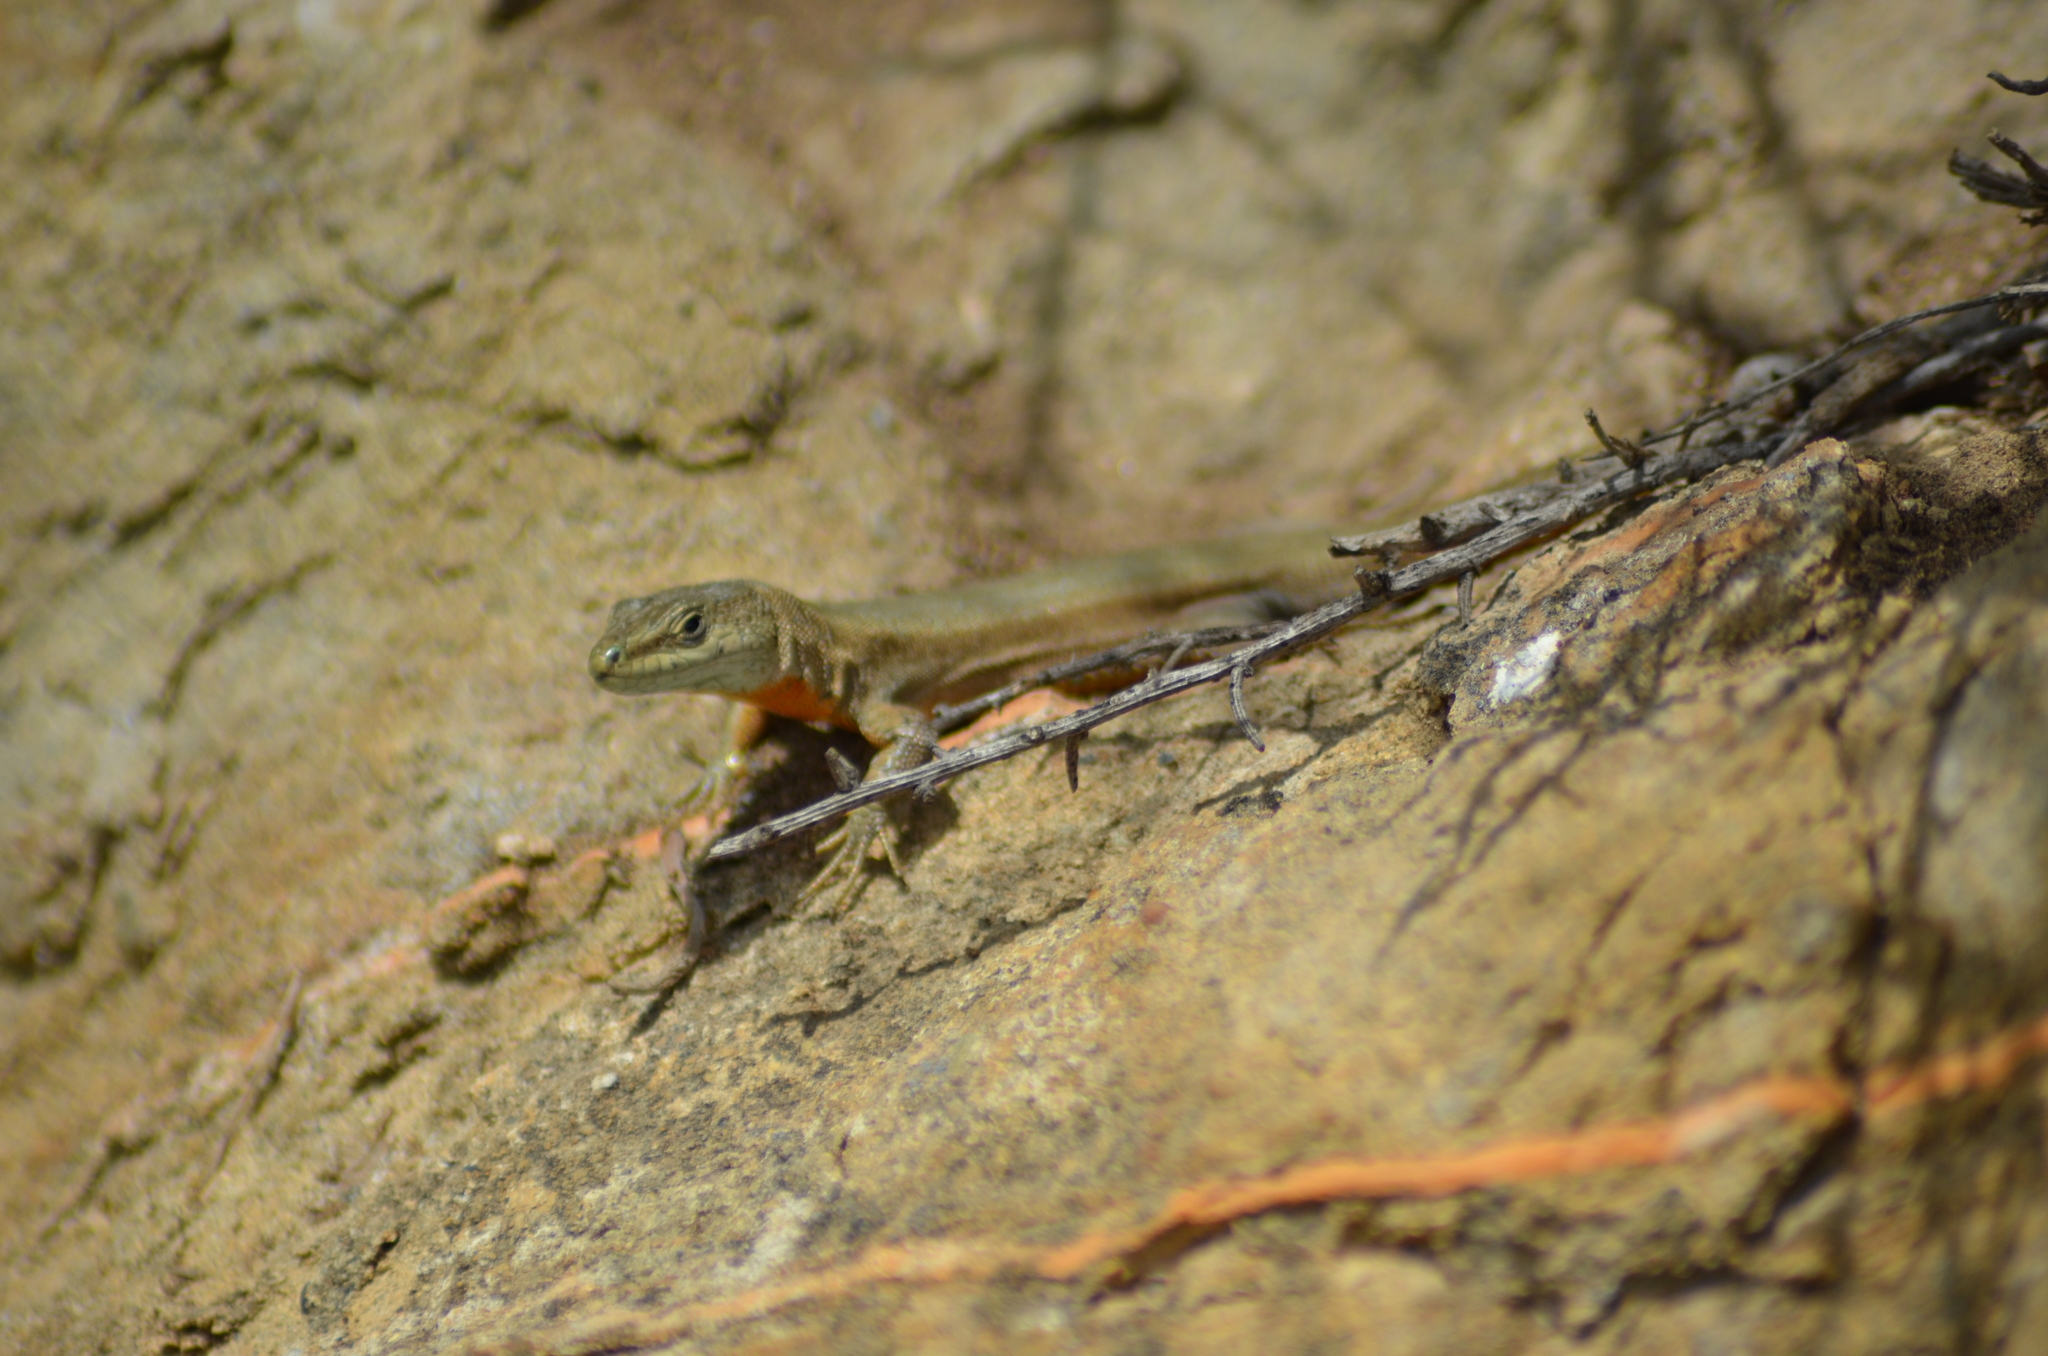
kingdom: Animalia
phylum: Chordata
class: Squamata
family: Lacertidae
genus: Podarcis
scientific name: Podarcis liolepis
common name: Catalonian wall lizard
